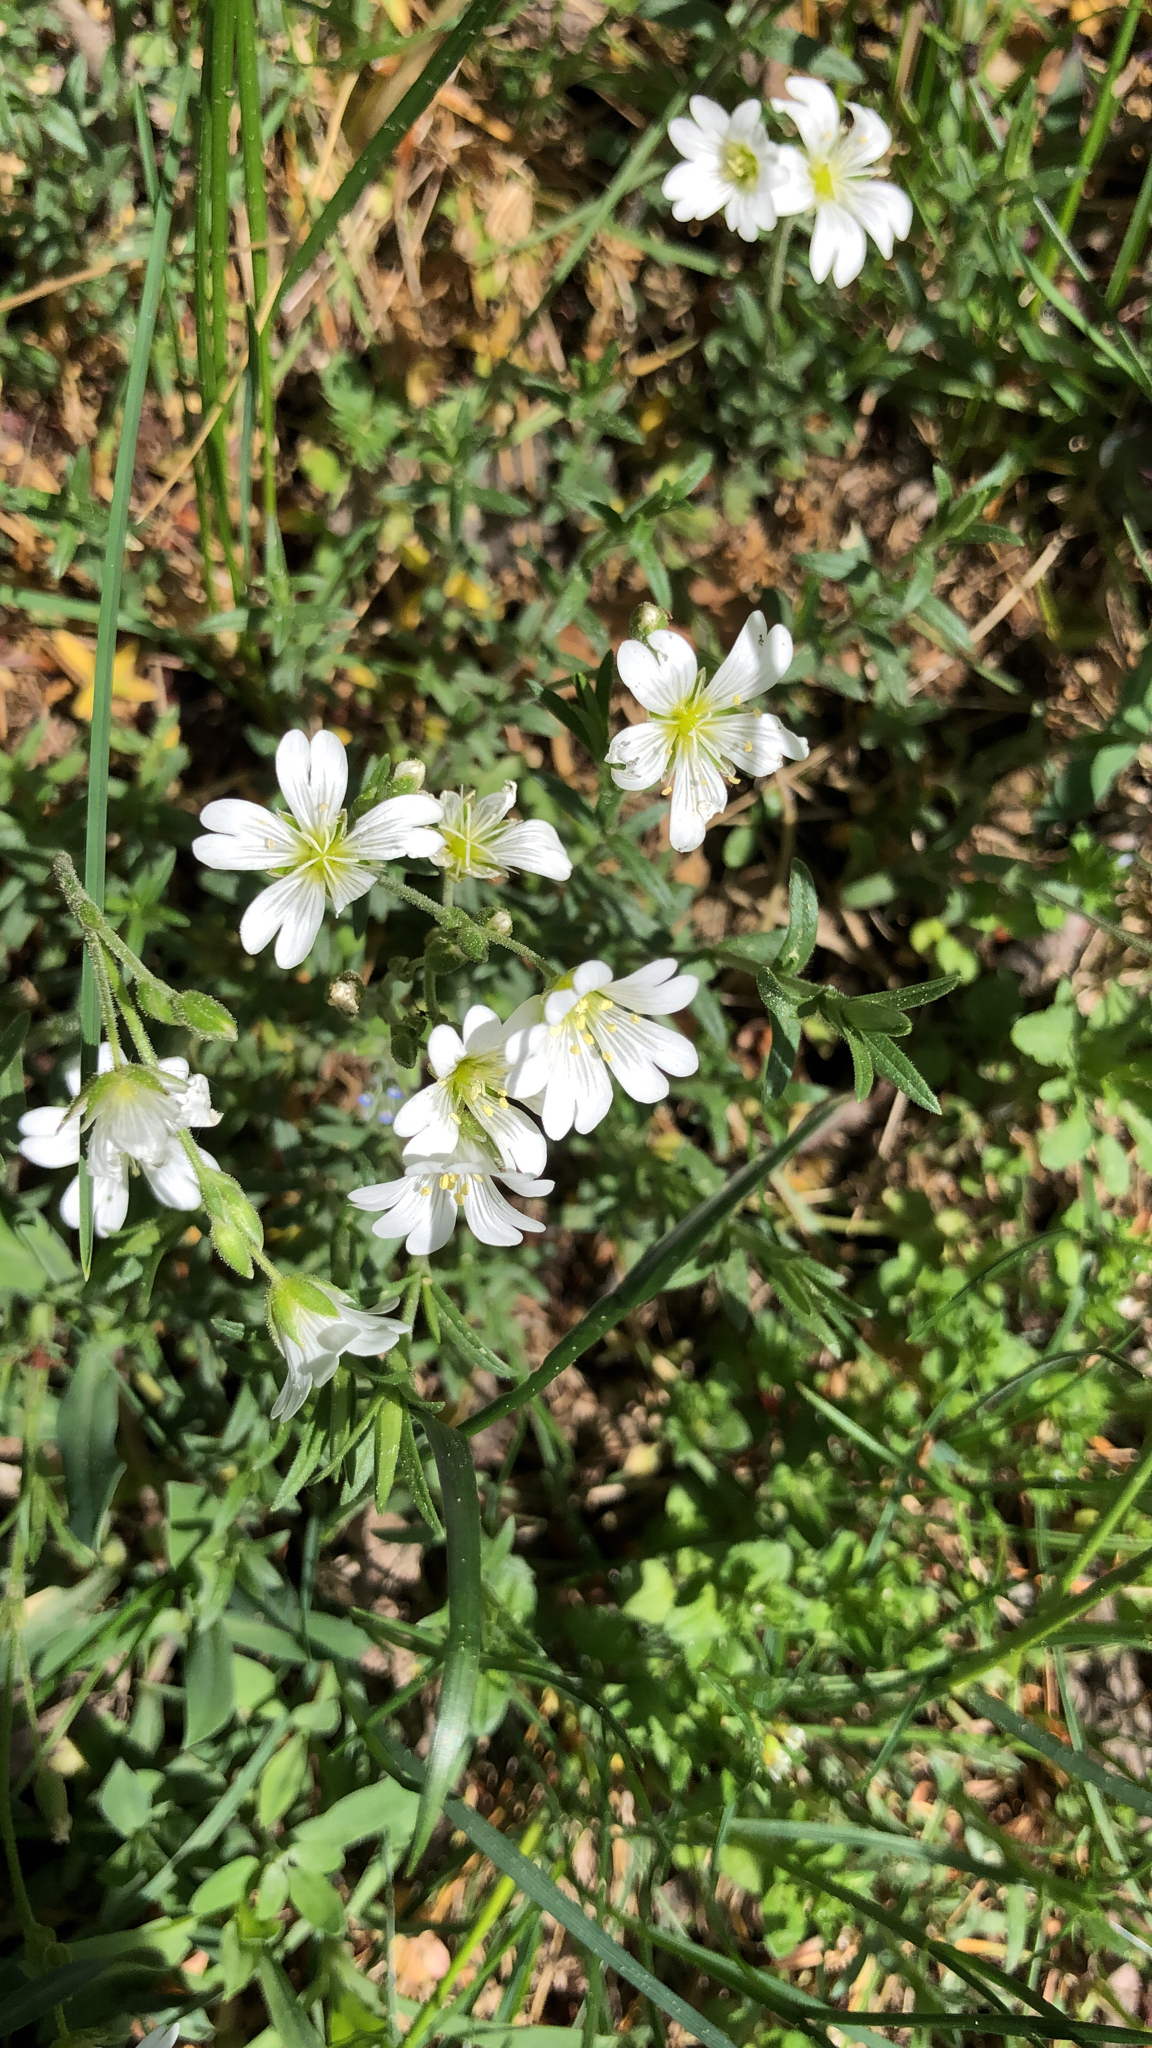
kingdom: Plantae
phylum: Tracheophyta
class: Magnoliopsida
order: Caryophyllales
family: Caryophyllaceae
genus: Cerastium
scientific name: Cerastium arvense
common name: Field mouse-ear
